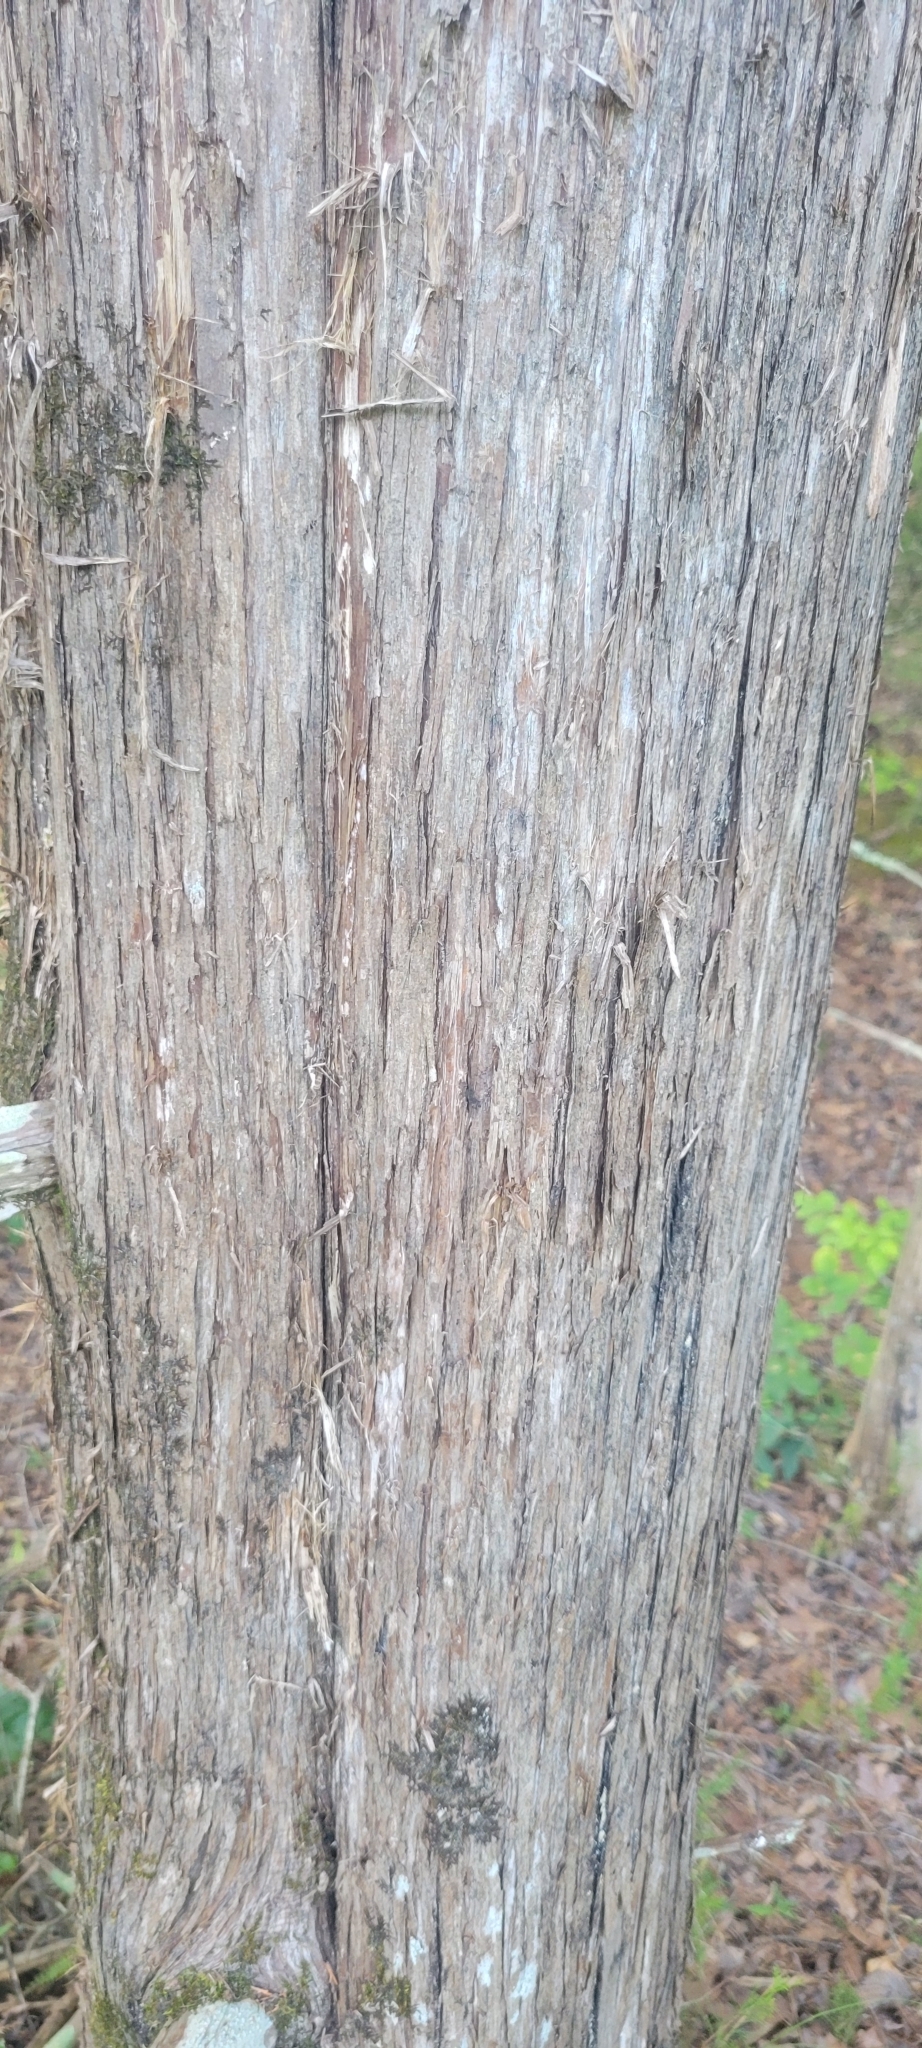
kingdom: Plantae
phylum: Tracheophyta
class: Pinopsida
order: Pinales
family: Cupressaceae
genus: Juniperus
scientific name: Juniperus virginiana
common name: Red juniper
